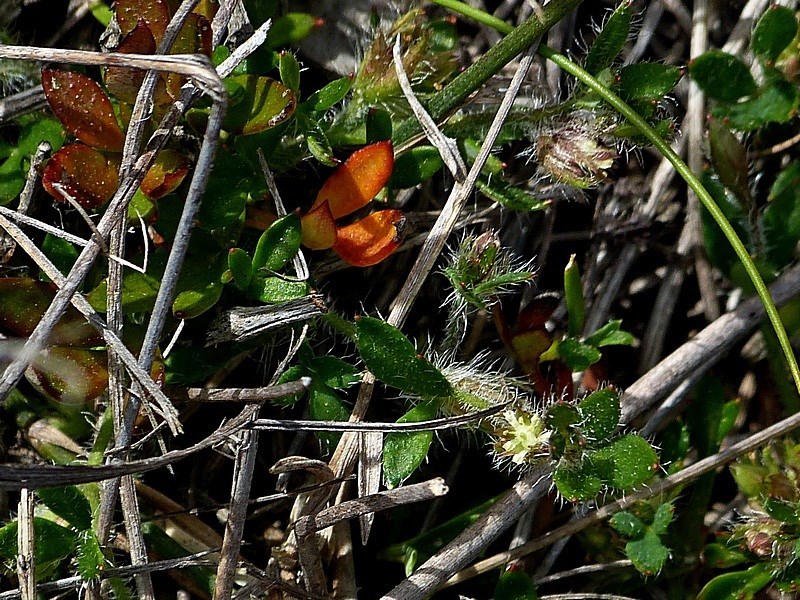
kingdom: Plantae
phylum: Tracheophyta
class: Magnoliopsida
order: Apiales
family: Apiaceae
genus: Xanthosia
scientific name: Xanthosia tasmanica
